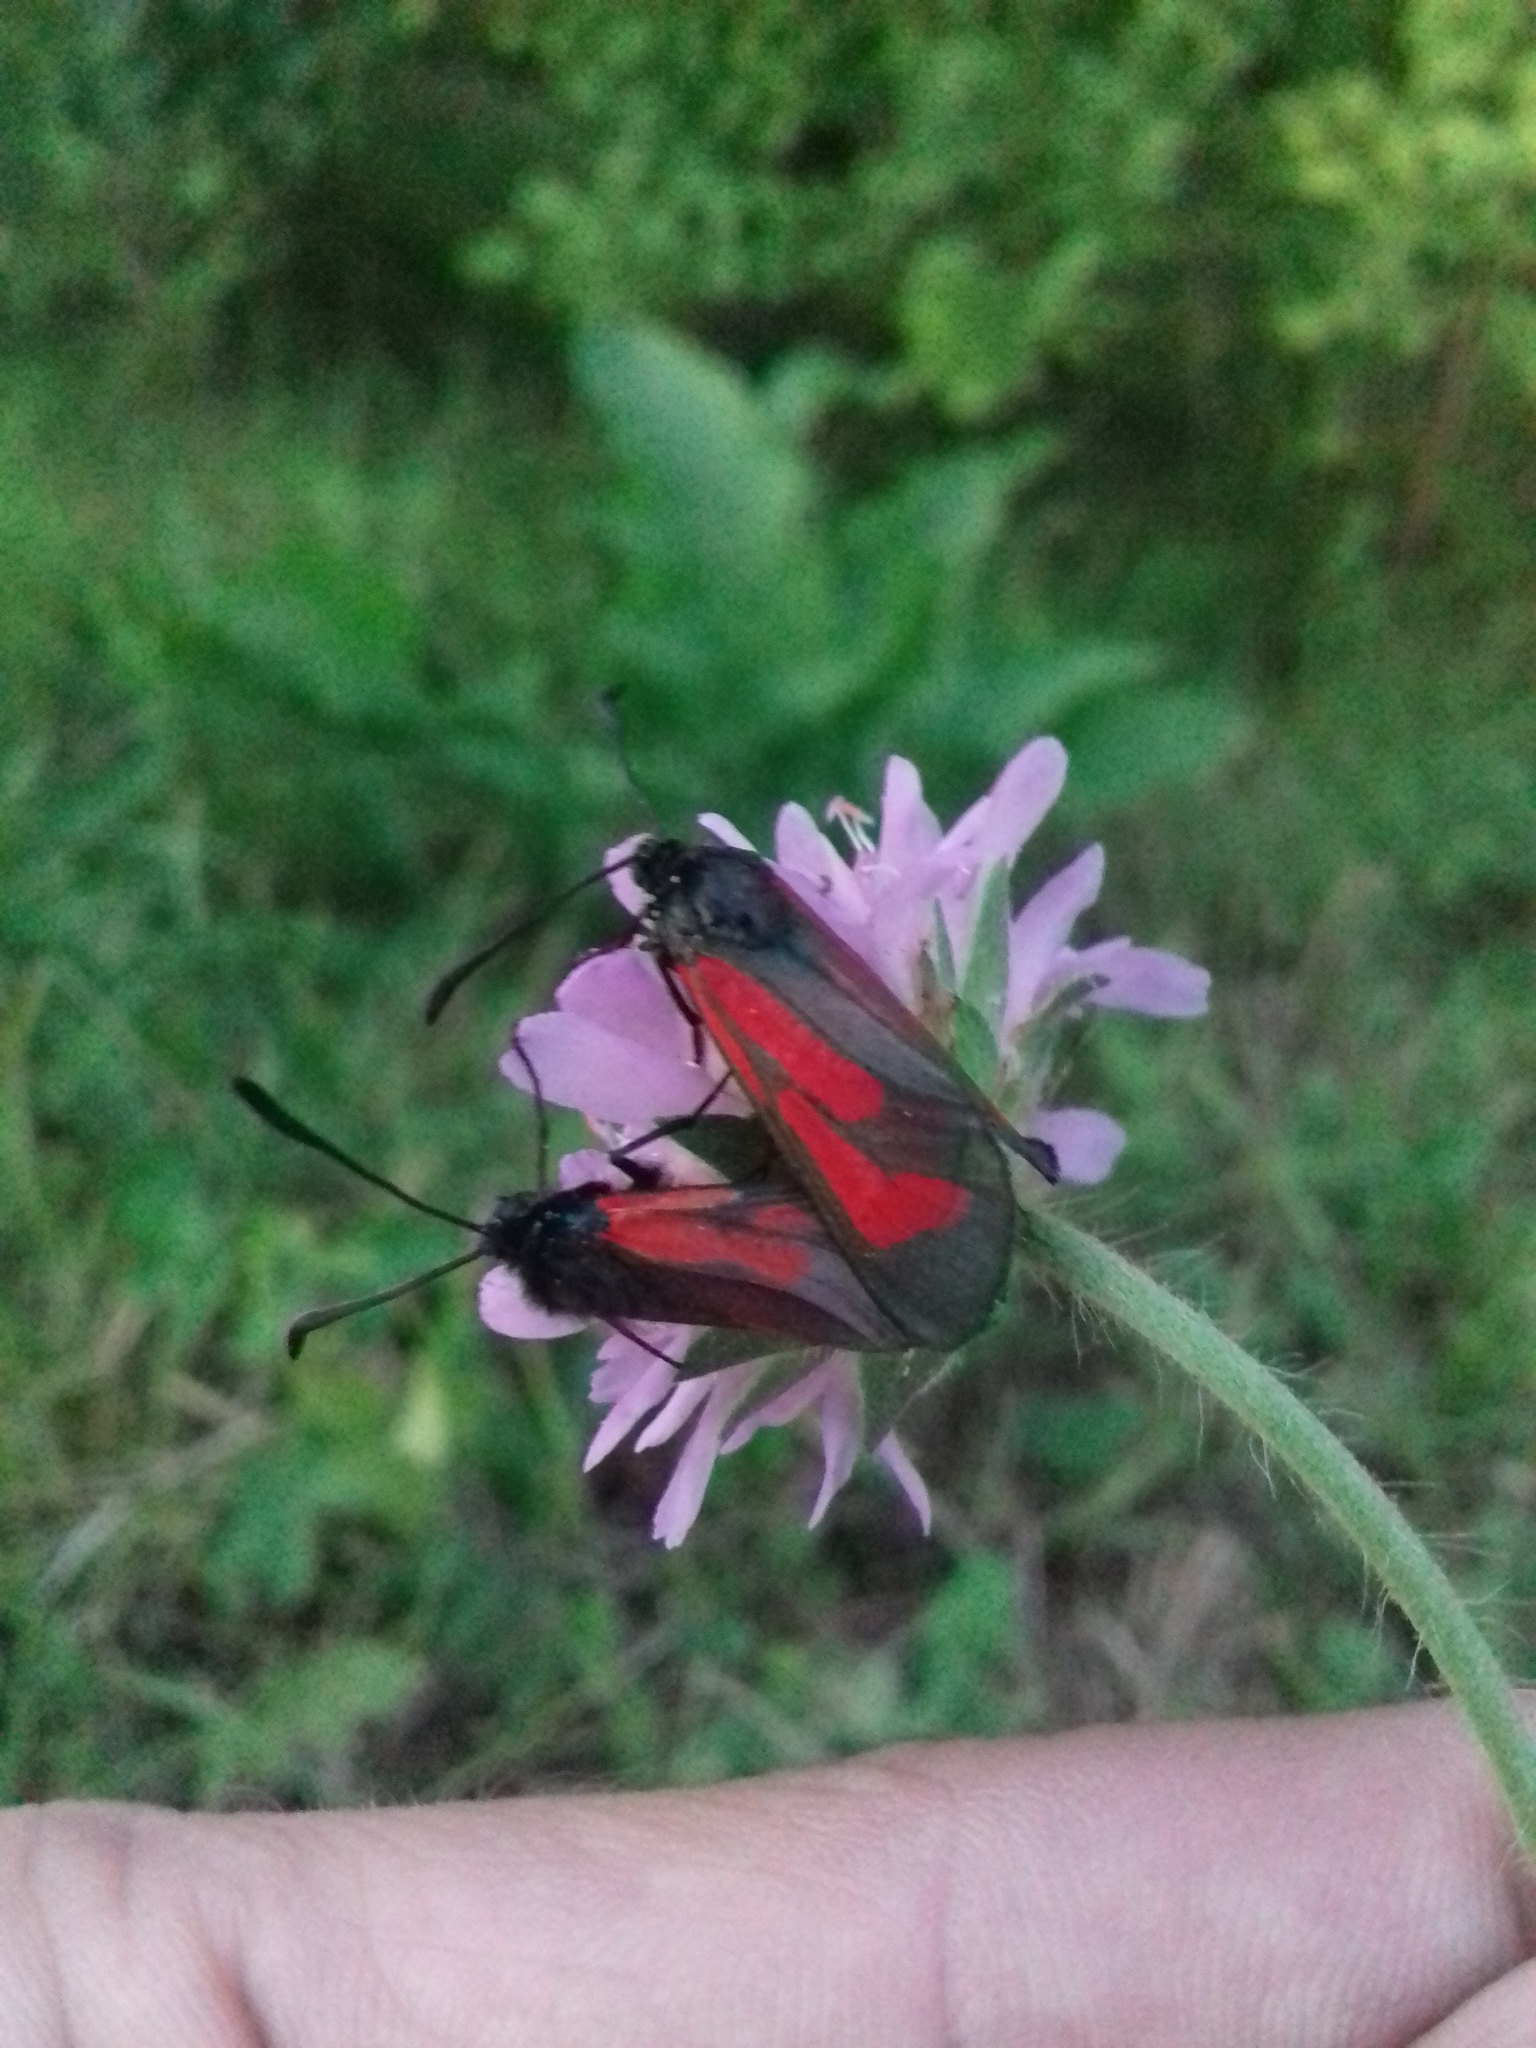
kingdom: Animalia
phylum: Arthropoda
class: Insecta
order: Lepidoptera
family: Zygaenidae
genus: Zygaena
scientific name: Zygaena minos
